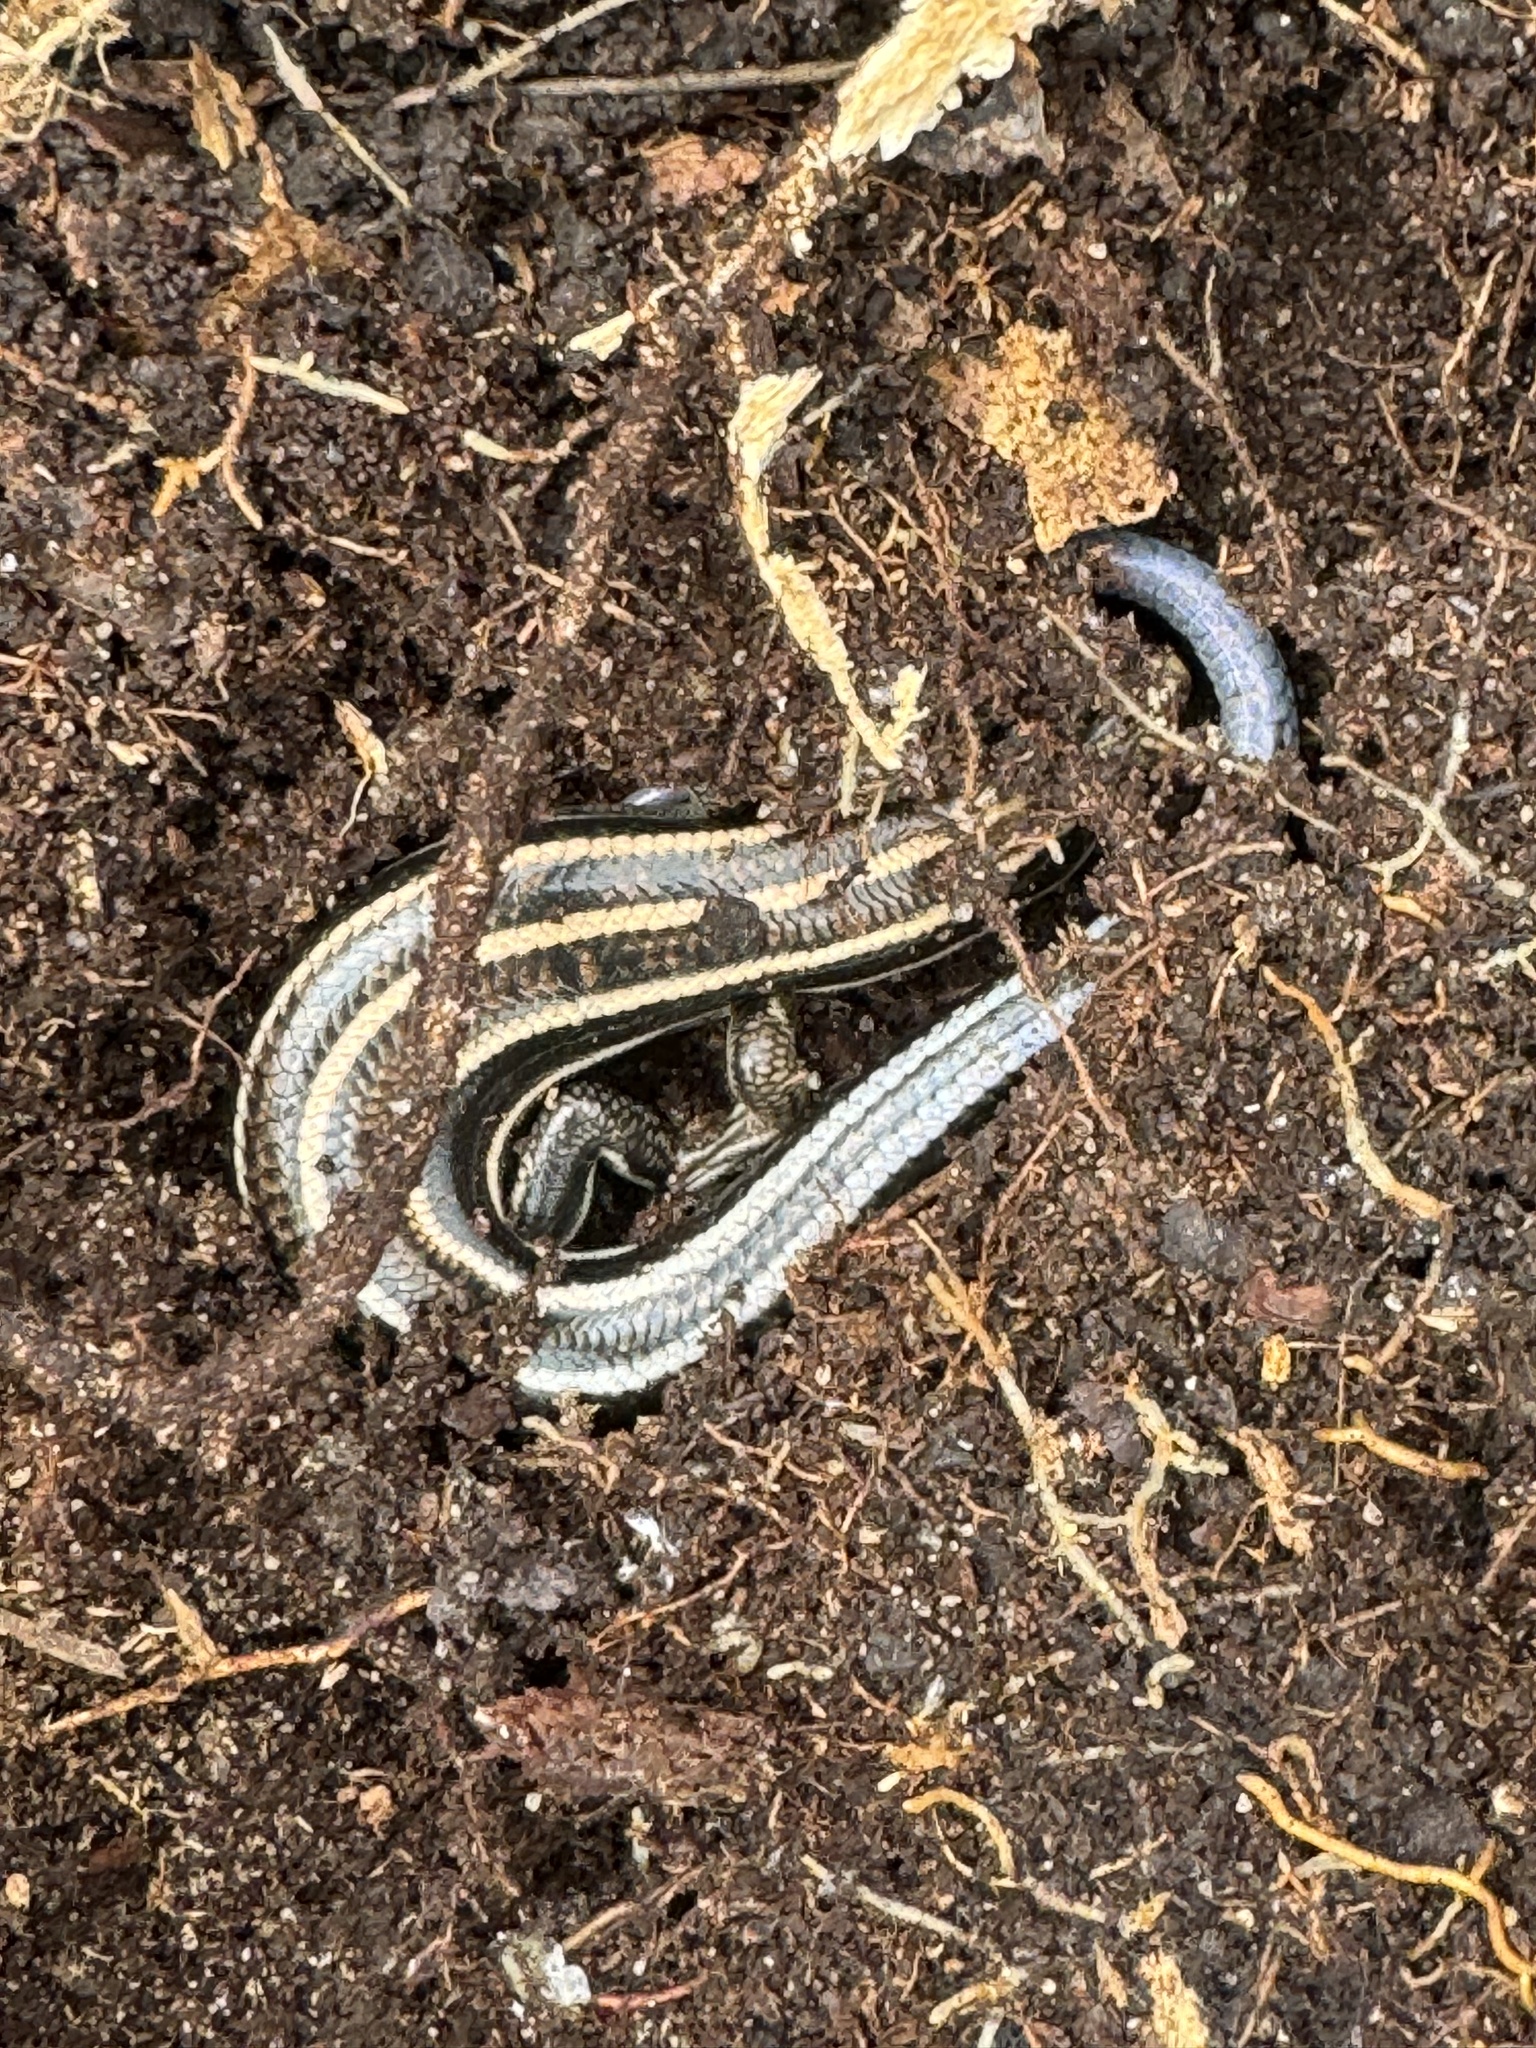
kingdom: Animalia
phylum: Chordata
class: Squamata
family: Scincidae
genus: Plestiodon
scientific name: Plestiodon fasciatus
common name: Five-lined skink
